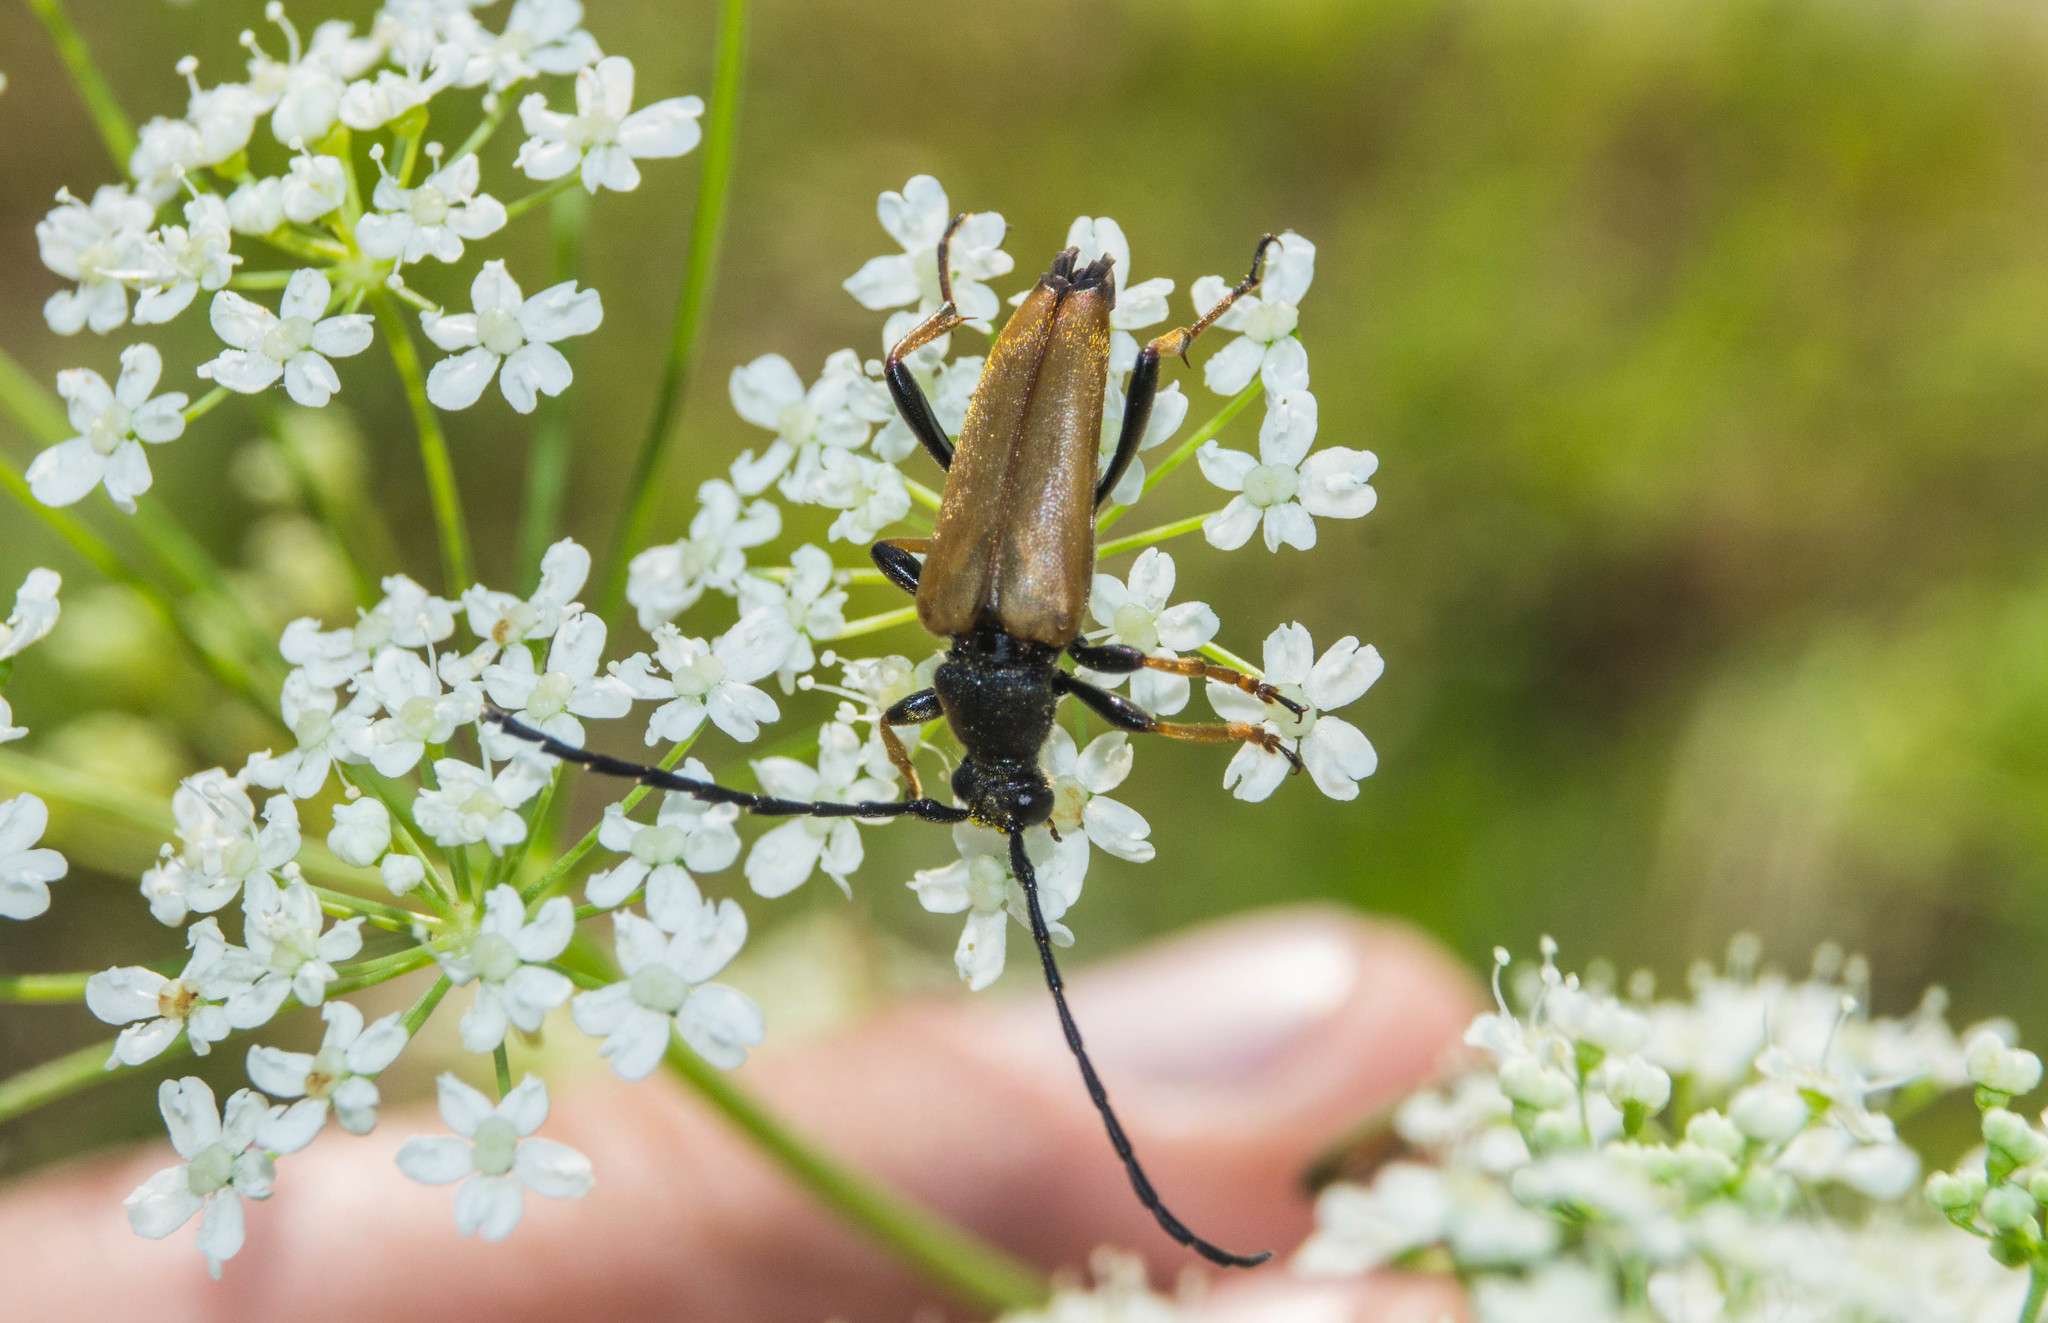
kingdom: Animalia
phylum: Arthropoda
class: Insecta
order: Coleoptera
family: Cerambycidae
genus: Stictoleptura
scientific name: Stictoleptura rubra
